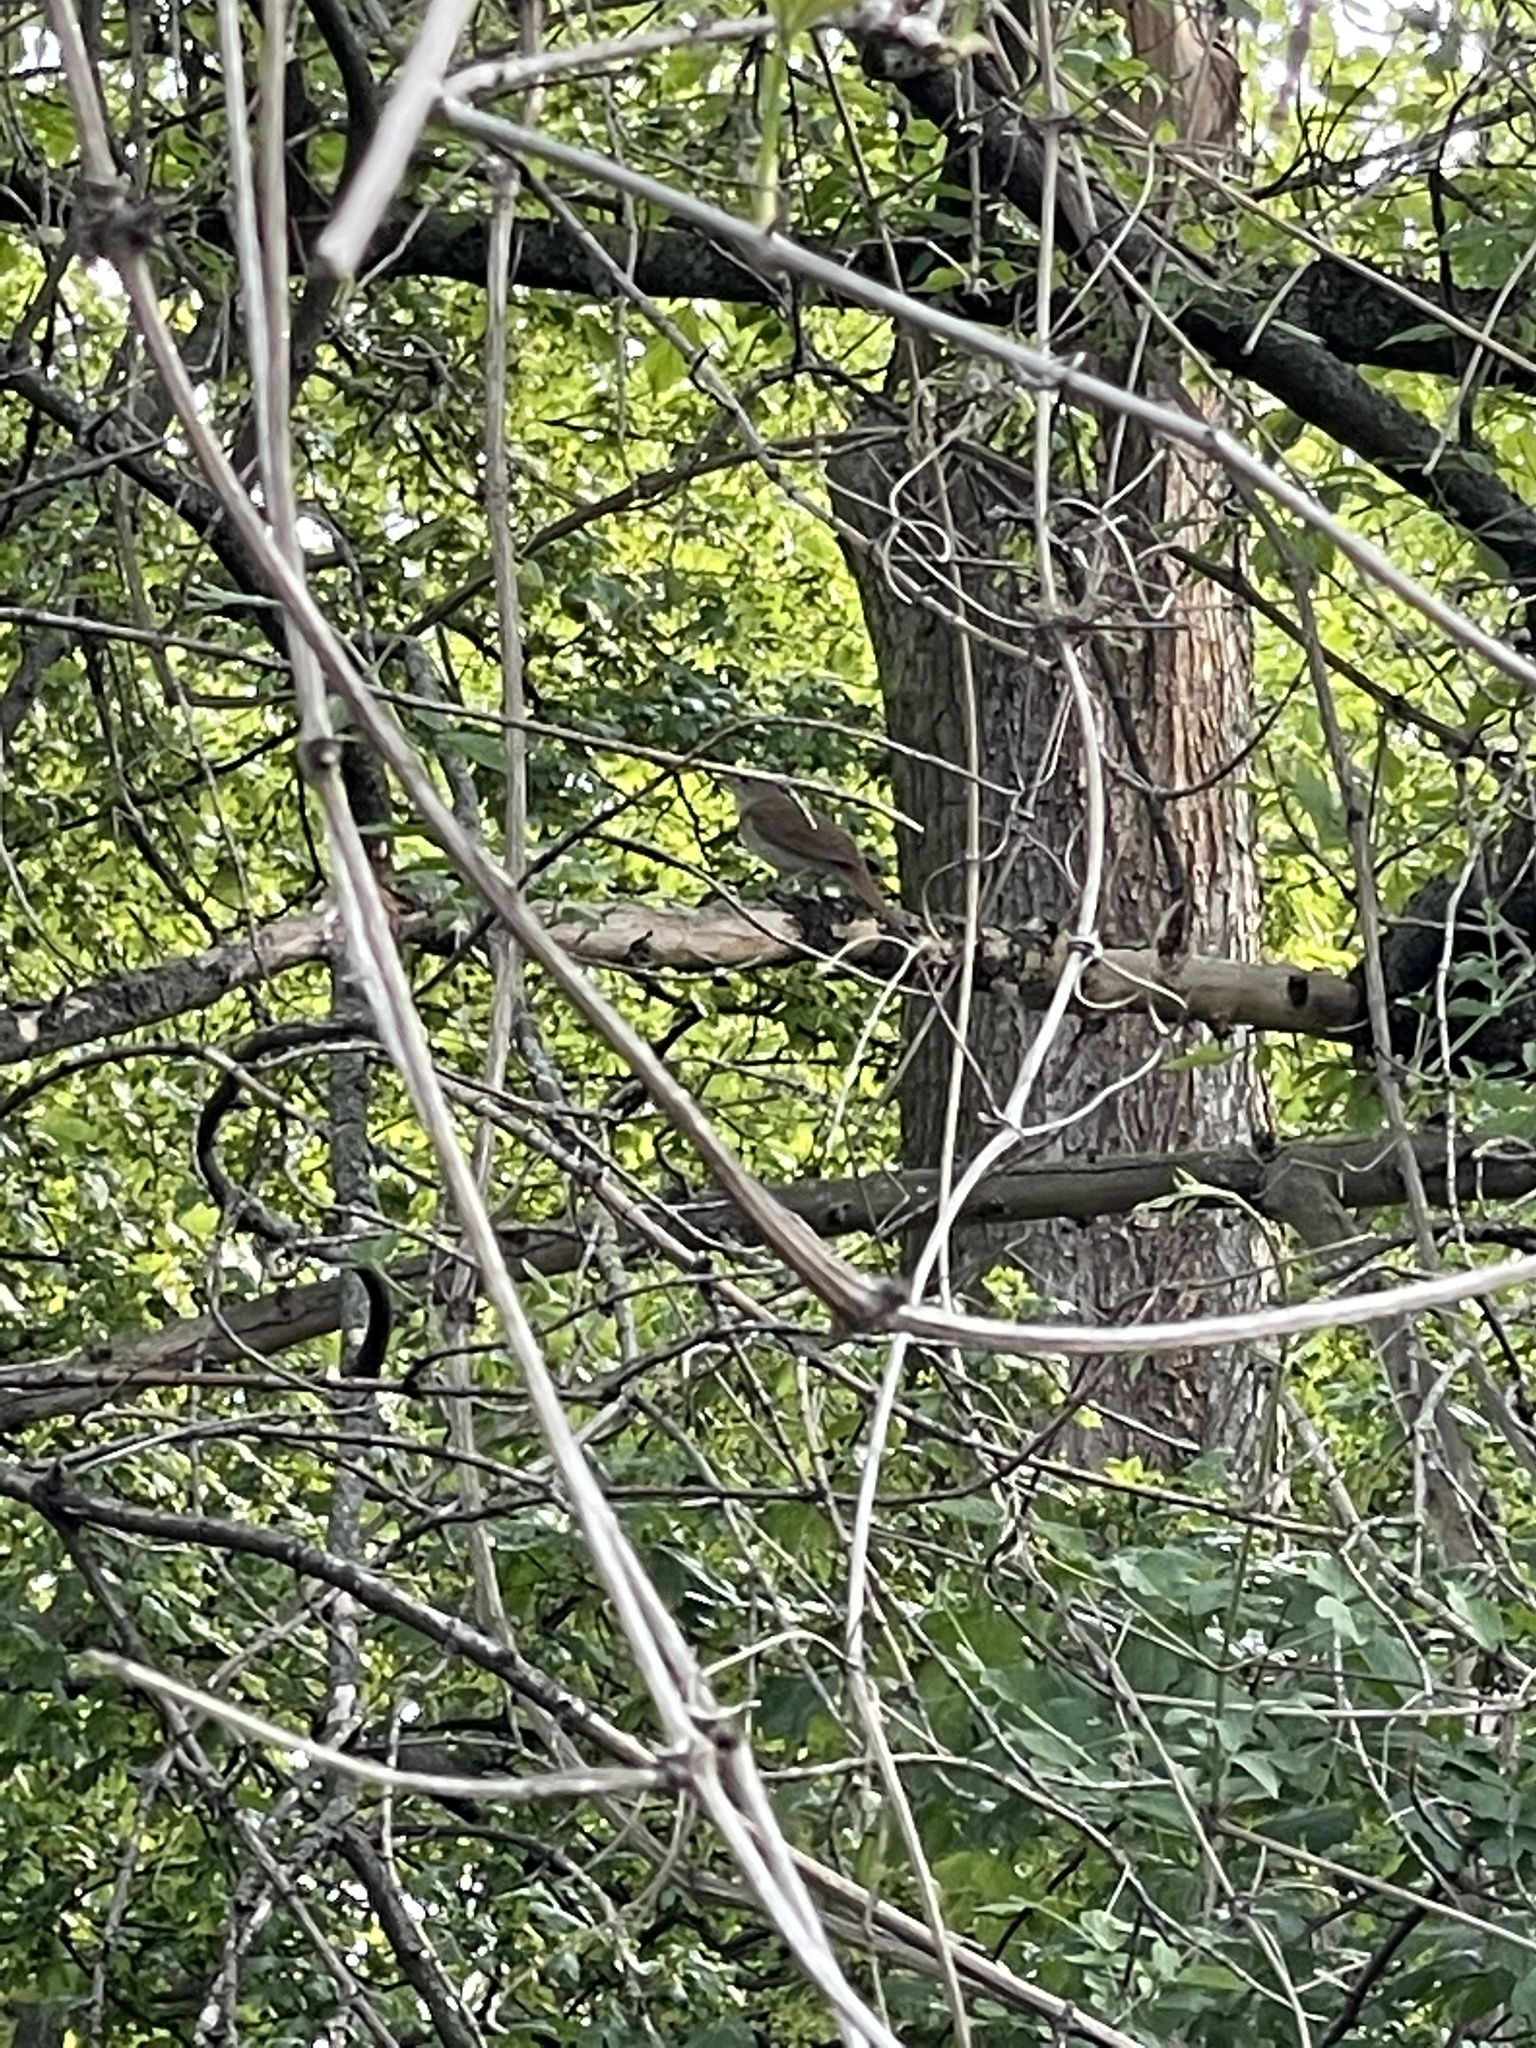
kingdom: Animalia
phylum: Chordata
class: Aves
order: Passeriformes
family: Muscicapidae
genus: Luscinia
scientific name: Luscinia megarhynchos
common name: Common nightingale
